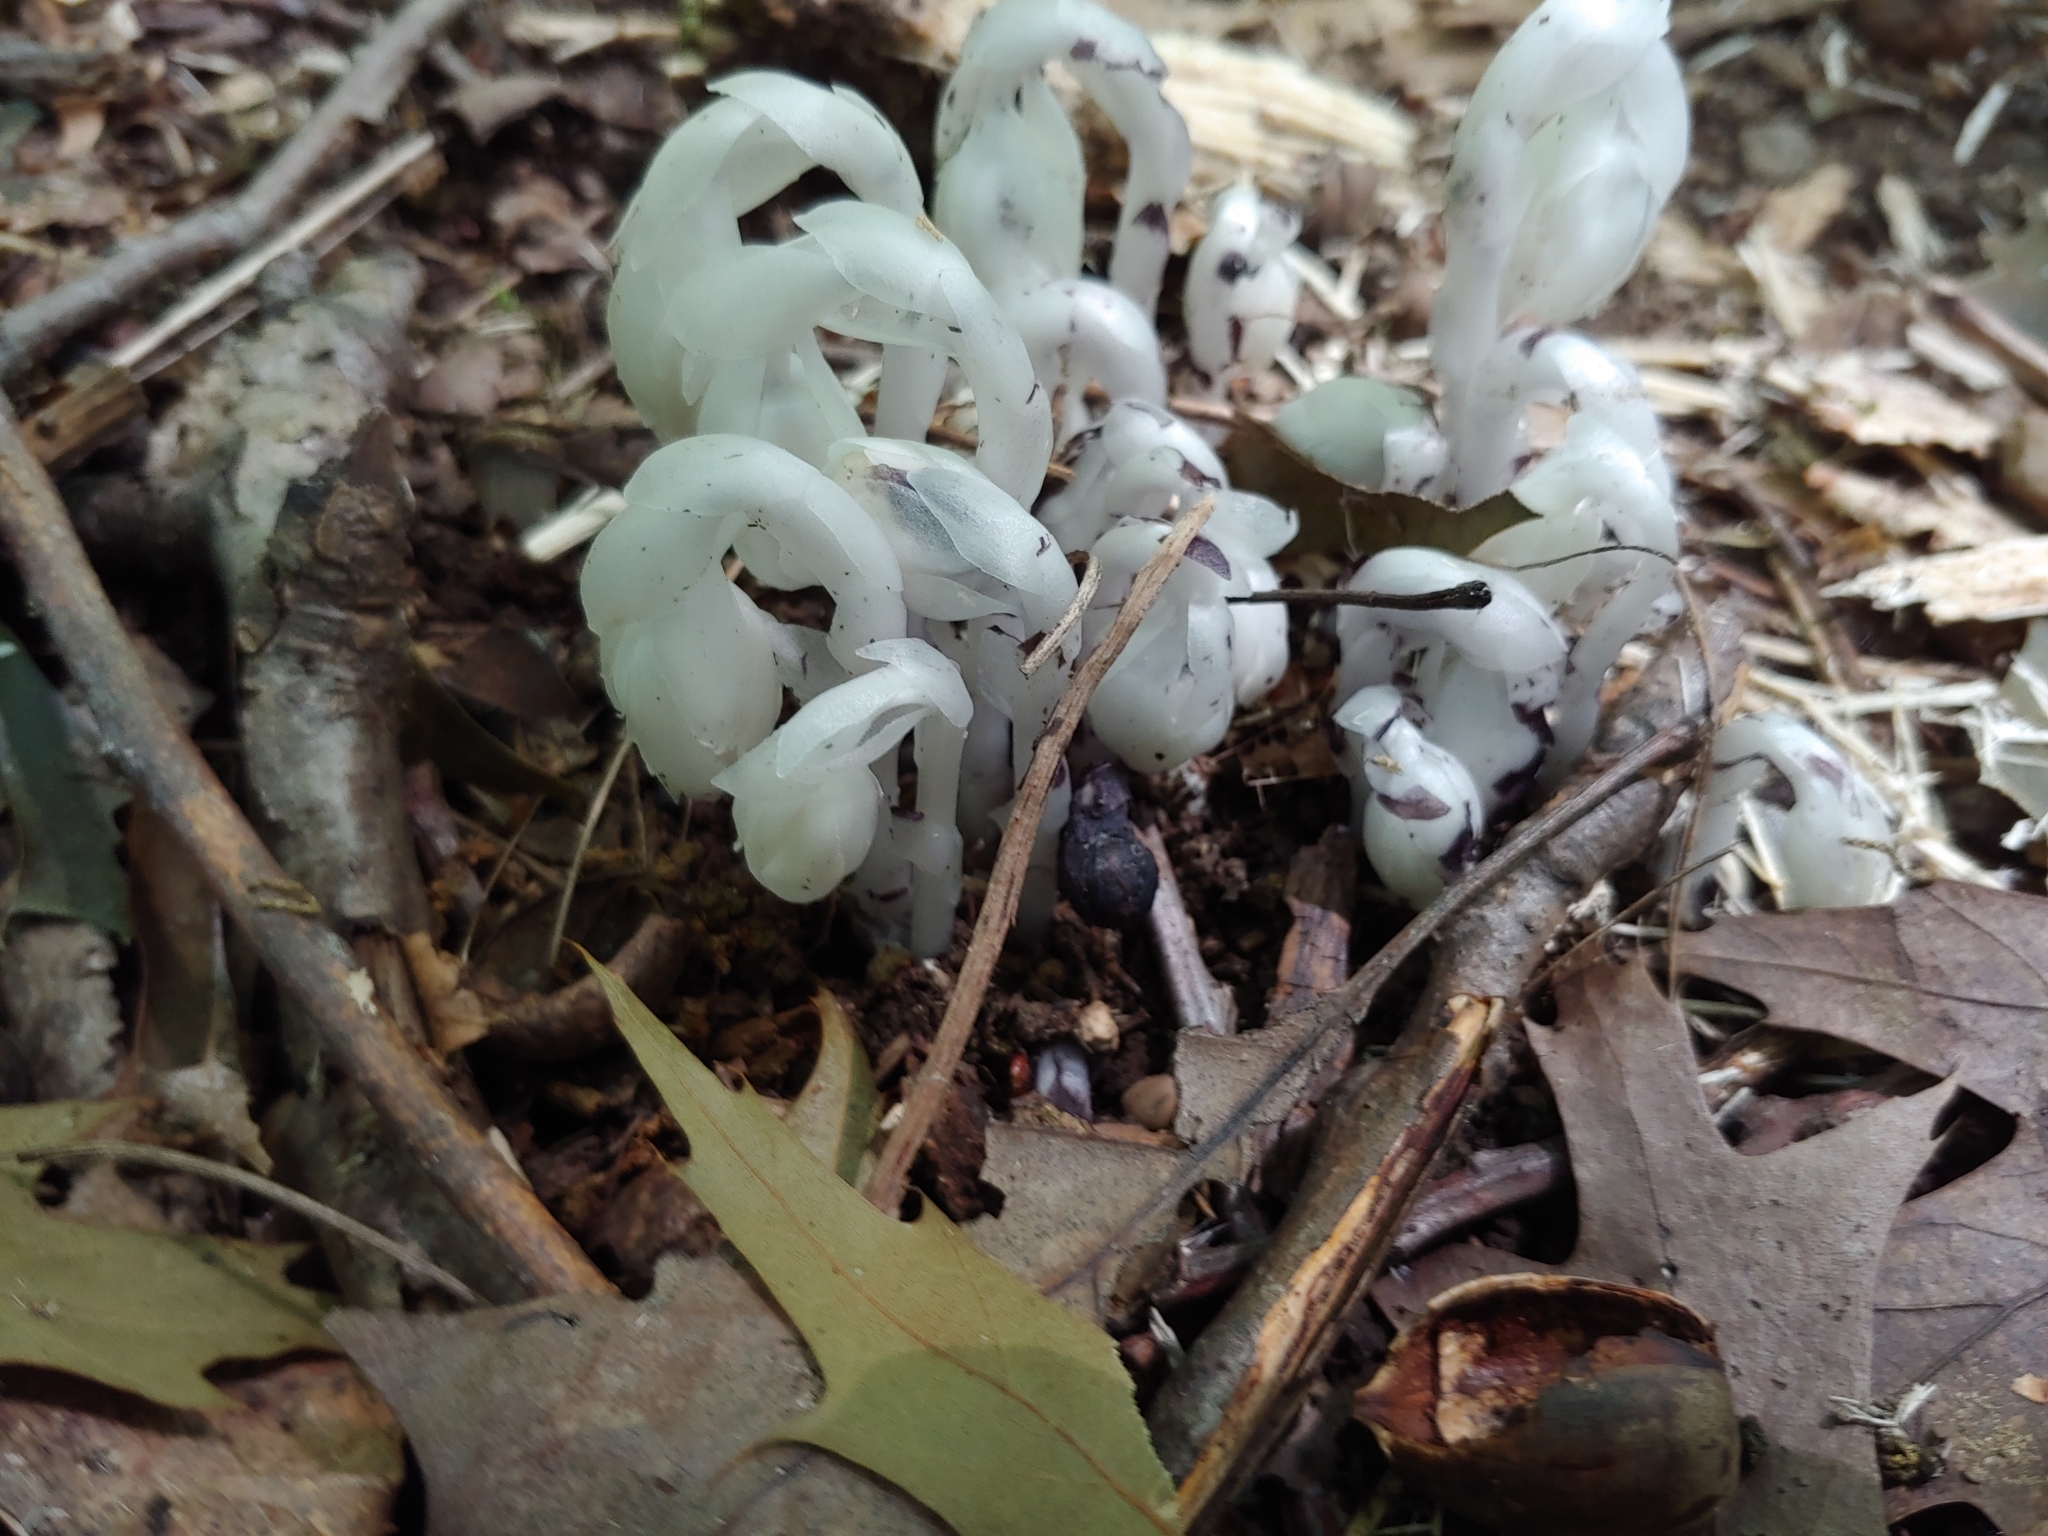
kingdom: Plantae
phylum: Tracheophyta
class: Magnoliopsida
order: Ericales
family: Ericaceae
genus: Monotropa
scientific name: Monotropa uniflora
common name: Convulsion root
